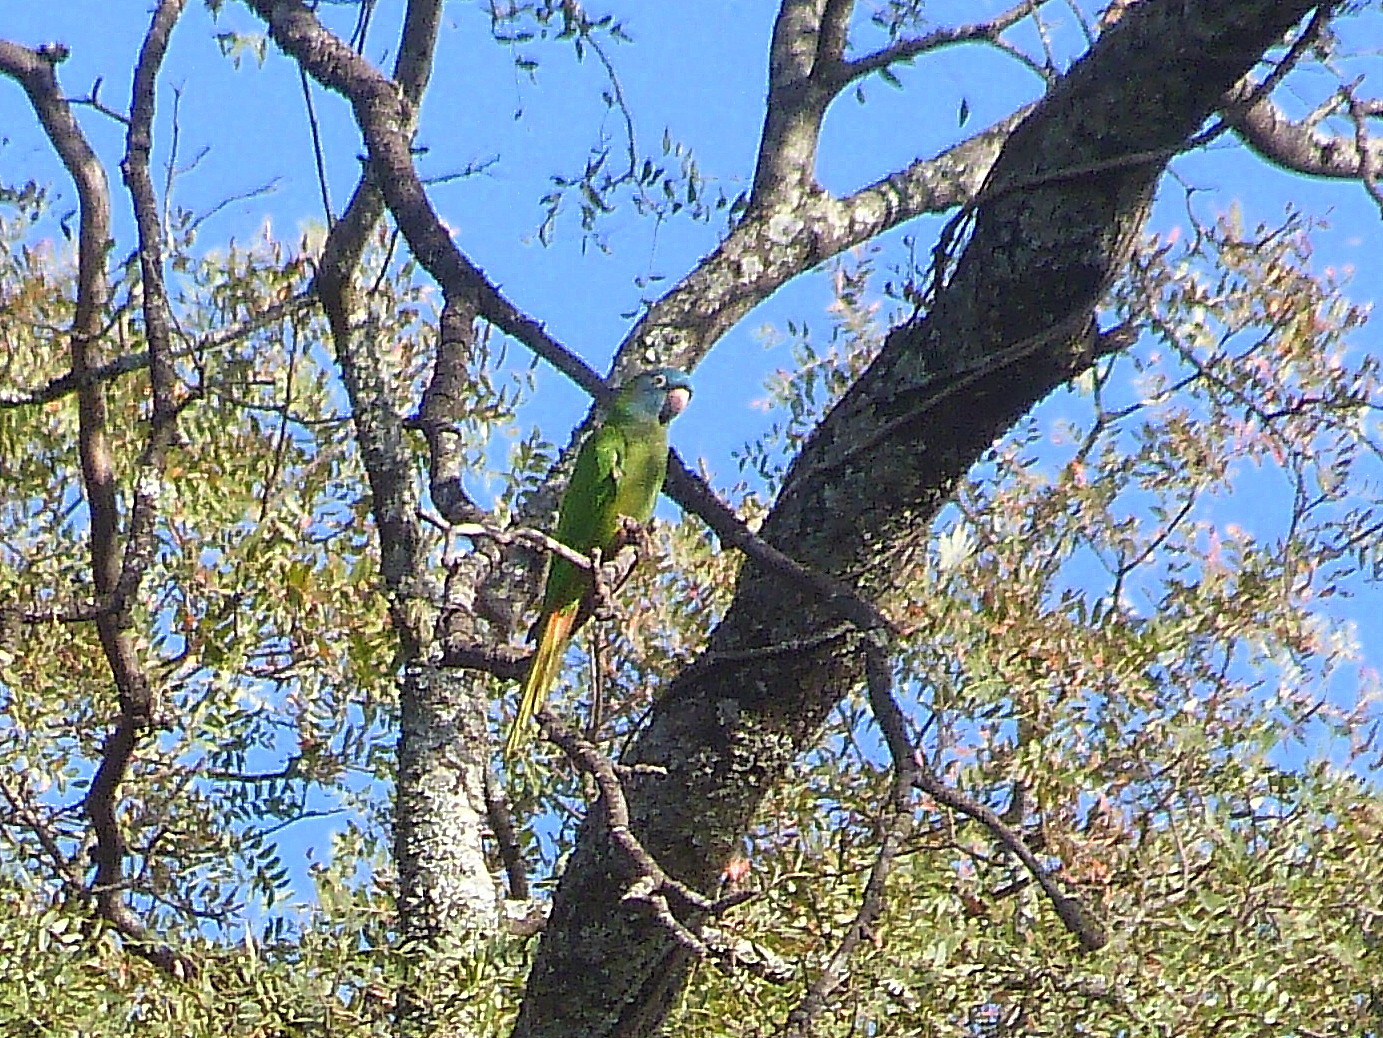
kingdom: Animalia
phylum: Chordata
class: Aves
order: Psittaciformes
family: Psittacidae
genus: Aratinga
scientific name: Aratinga acuticaudata
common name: Blue-crowned parakeet
